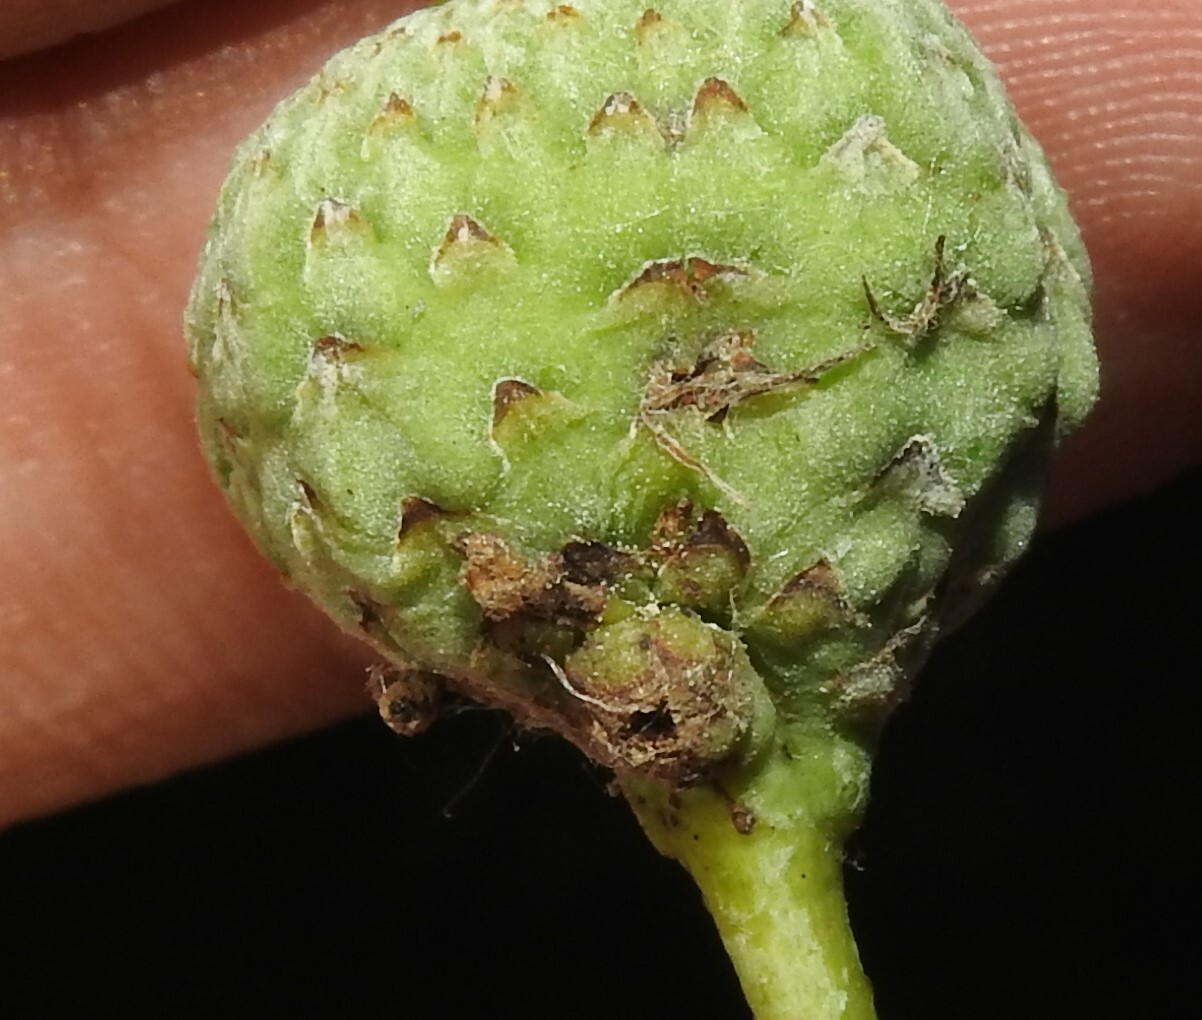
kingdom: Plantae
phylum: Tracheophyta
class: Magnoliopsida
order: Fagales
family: Fagaceae
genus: Quercus
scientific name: Quercus robur
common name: Pedunculate oak
